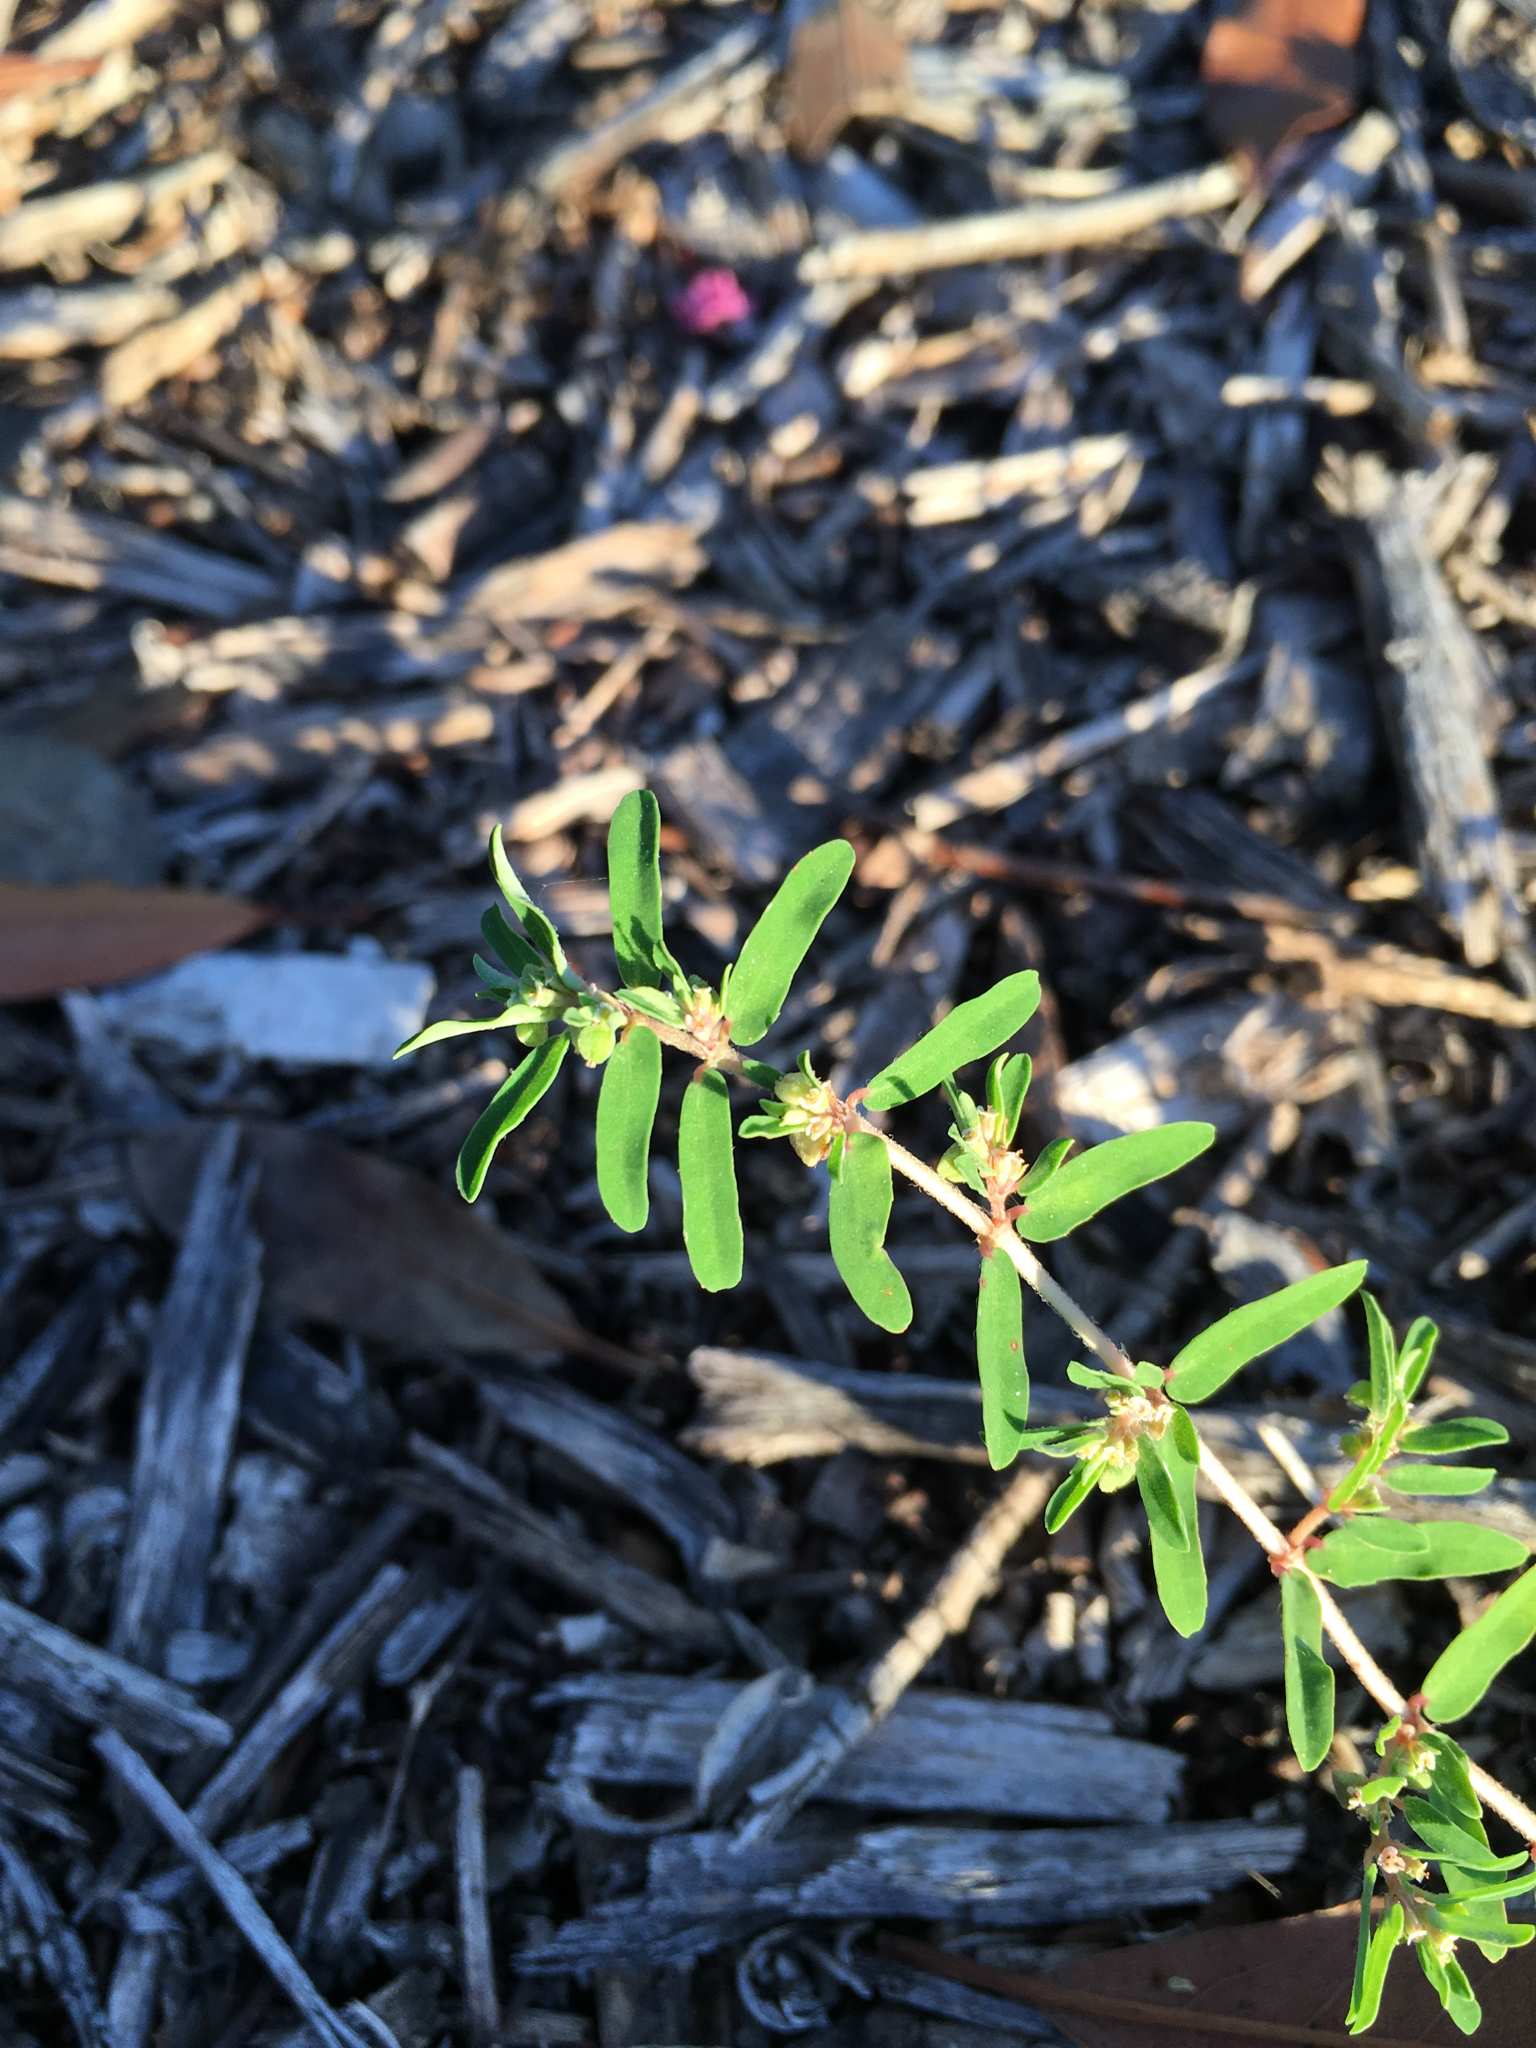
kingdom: Plantae
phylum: Tracheophyta
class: Magnoliopsida
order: Malpighiales
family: Euphorbiaceae
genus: Euphorbia
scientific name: Euphorbia maculata
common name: Spotted spurge
